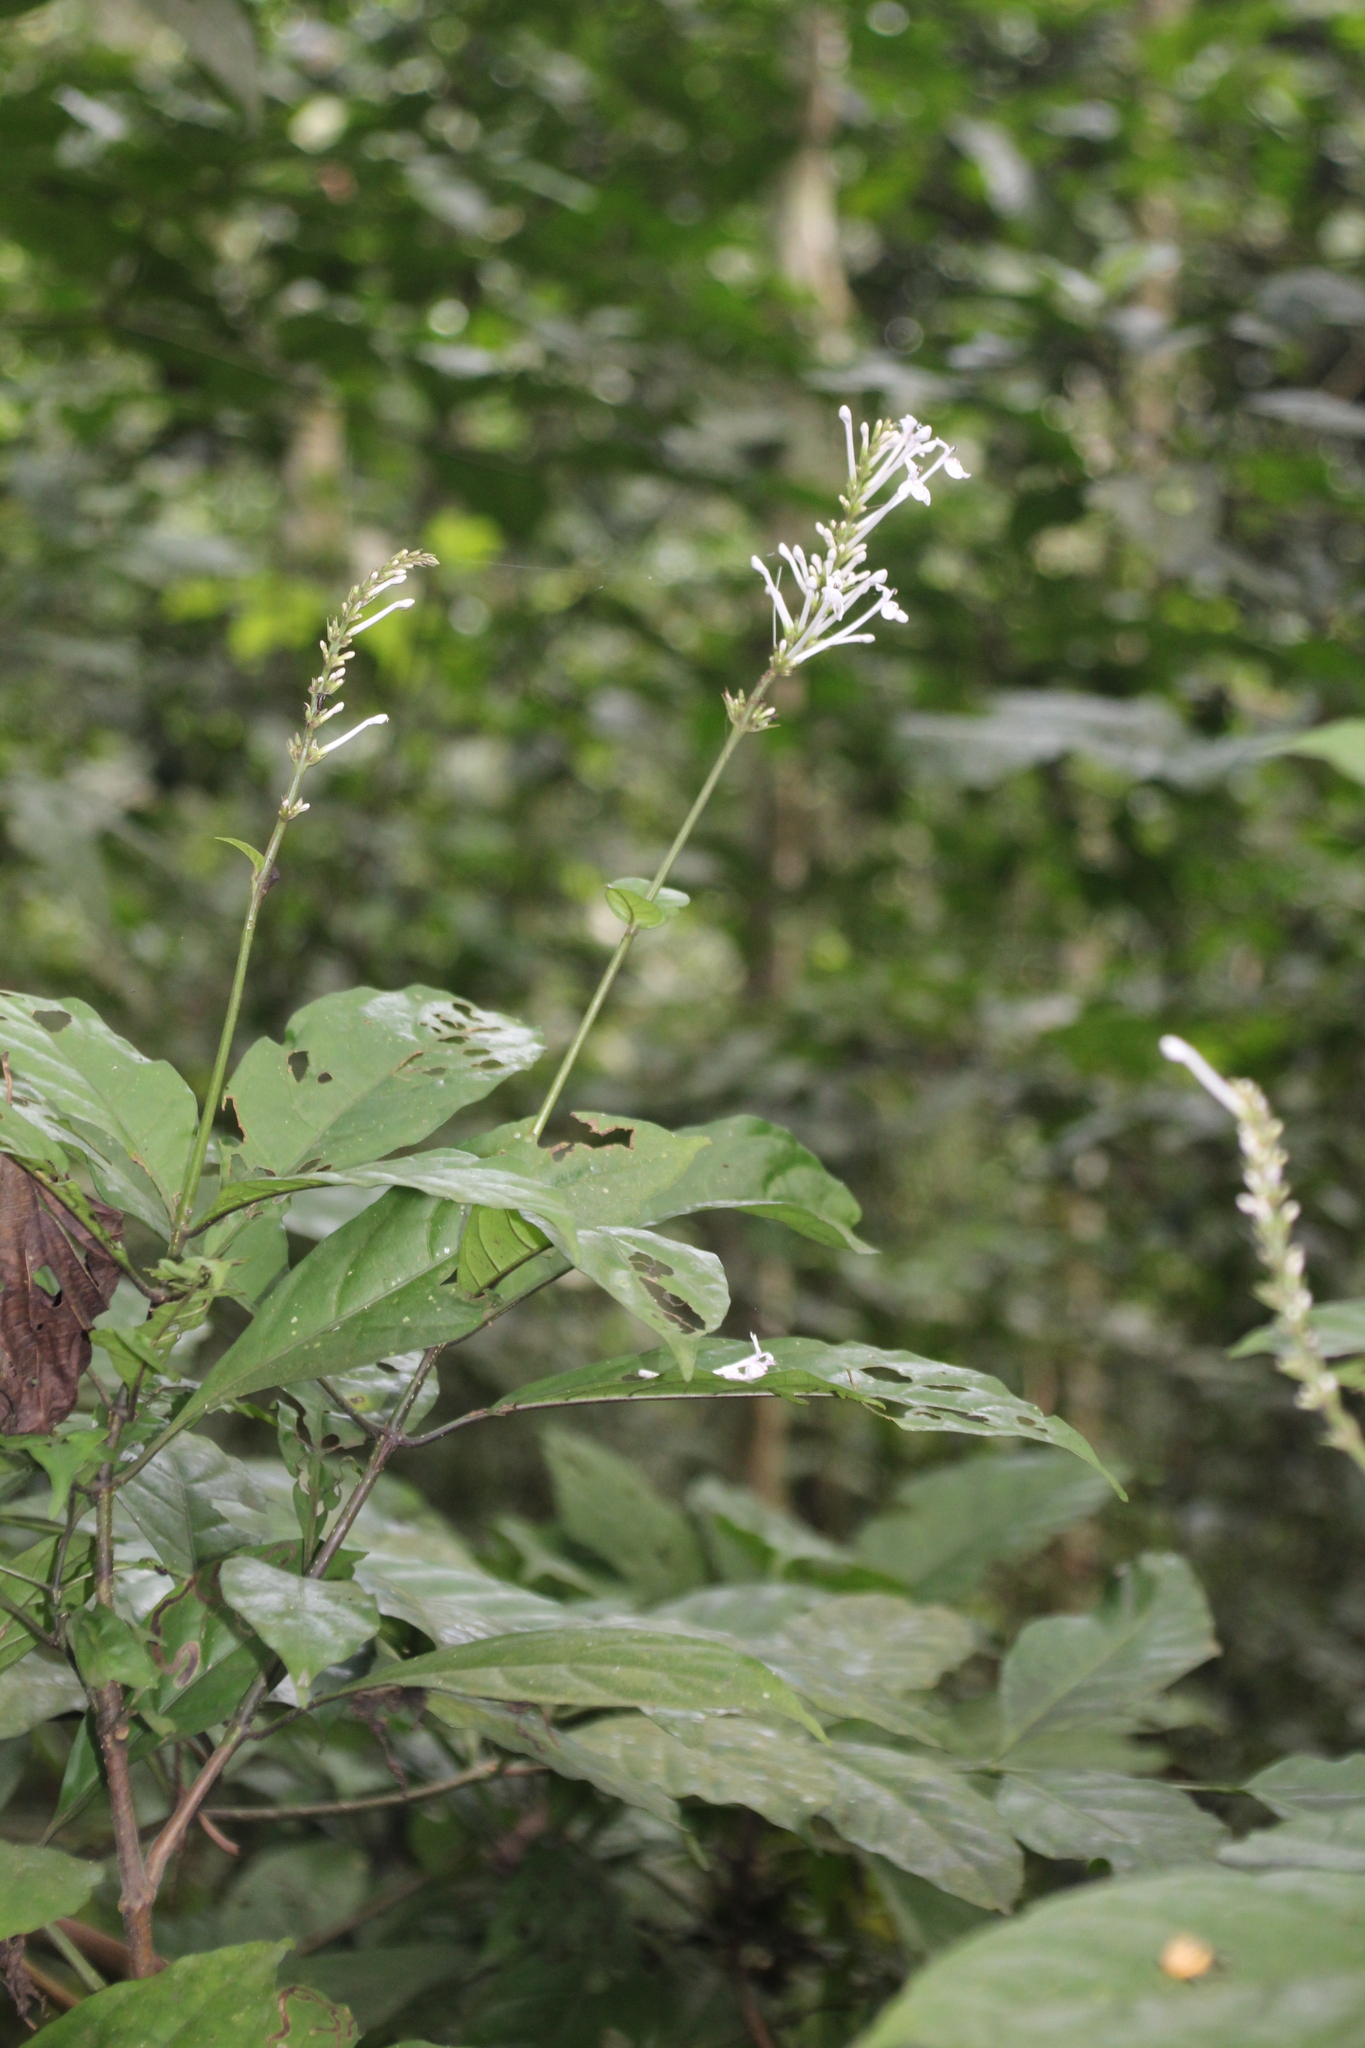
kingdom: Plantae
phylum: Tracheophyta
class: Magnoliopsida
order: Lamiales
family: Acanthaceae
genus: Pseuderanthemum
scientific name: Pseuderanthemum ludovicianum
